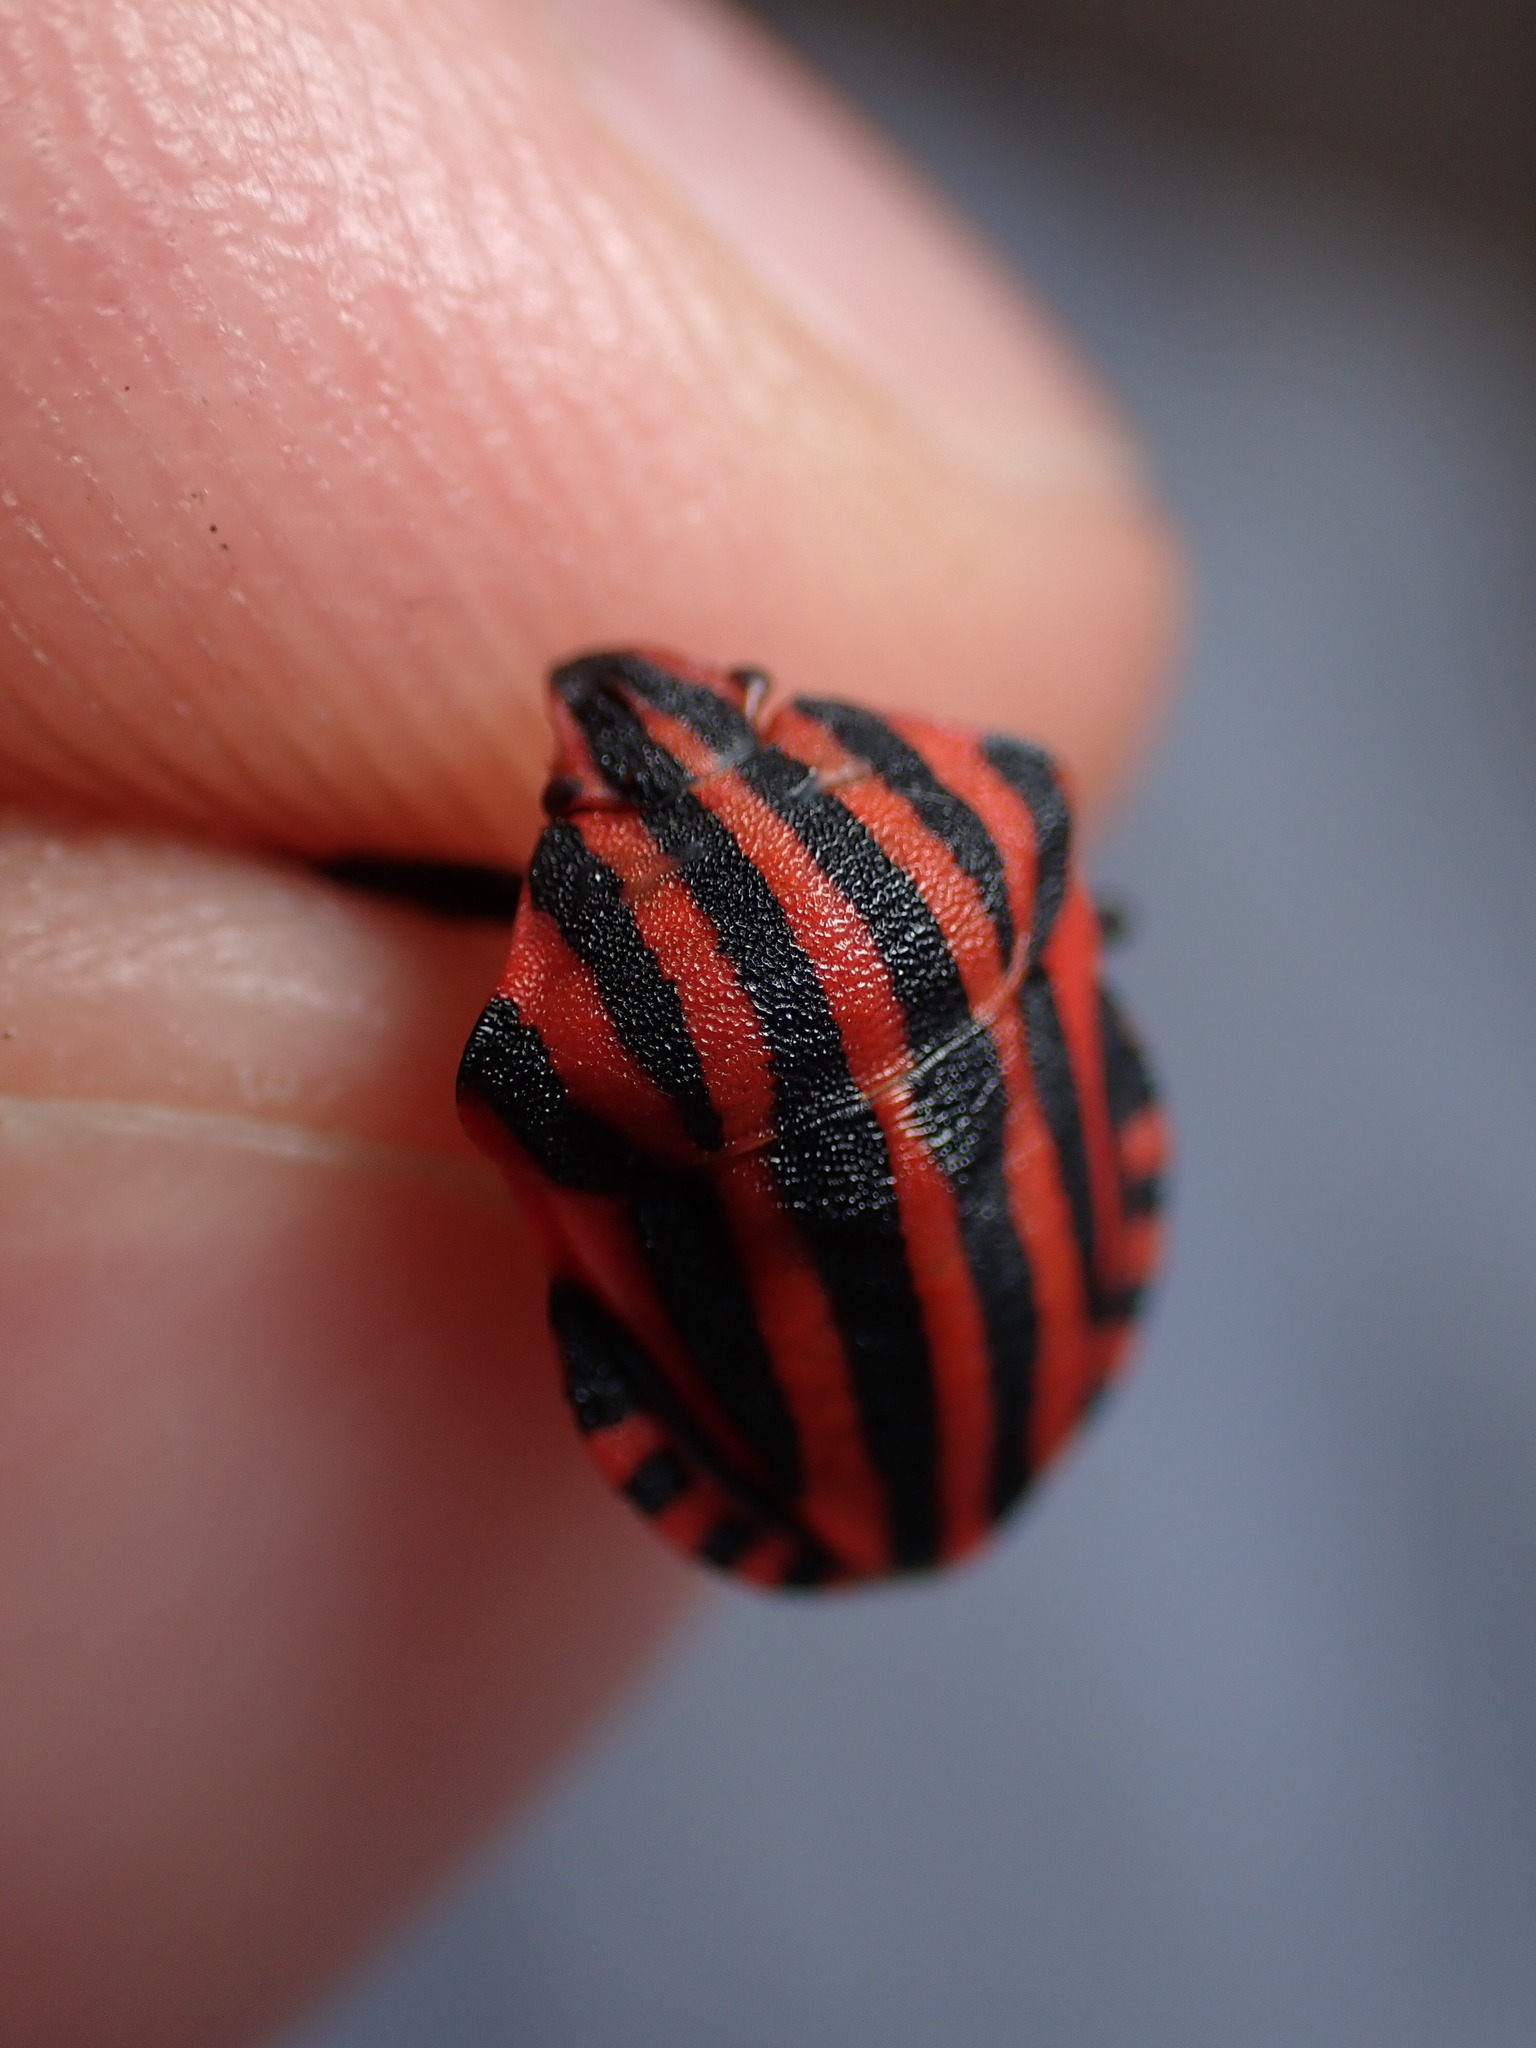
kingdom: Animalia
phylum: Arthropoda
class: Insecta
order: Hemiptera
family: Pentatomidae
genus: Graphosoma
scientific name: Graphosoma italicum
